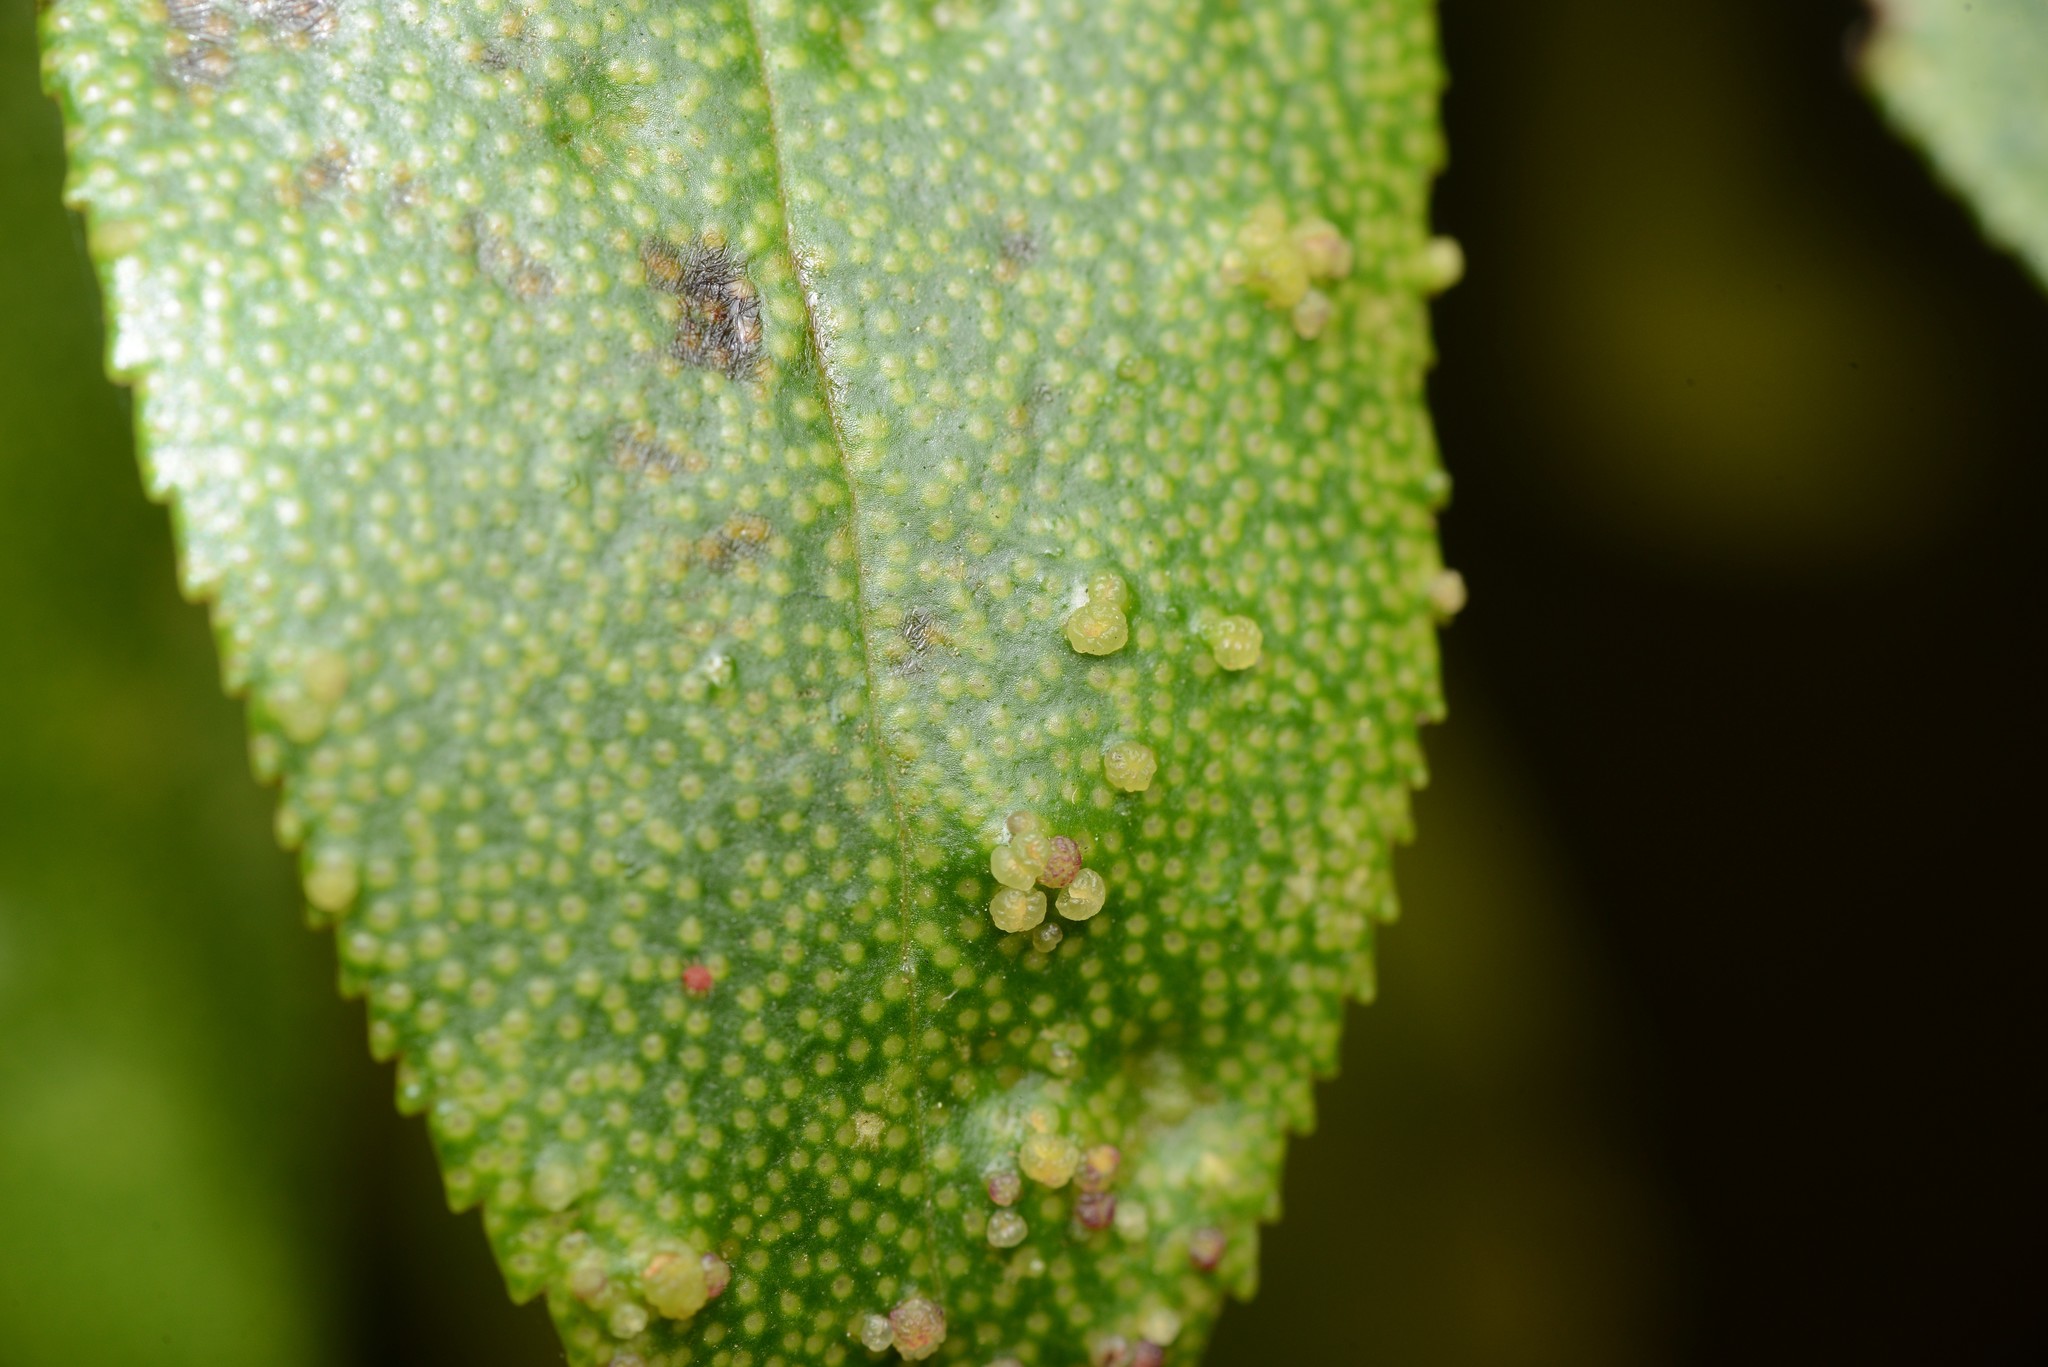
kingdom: Animalia
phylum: Arthropoda
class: Arachnida
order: Trombidiformes
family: Eriophyidae
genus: Aceria
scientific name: Aceria healyi
